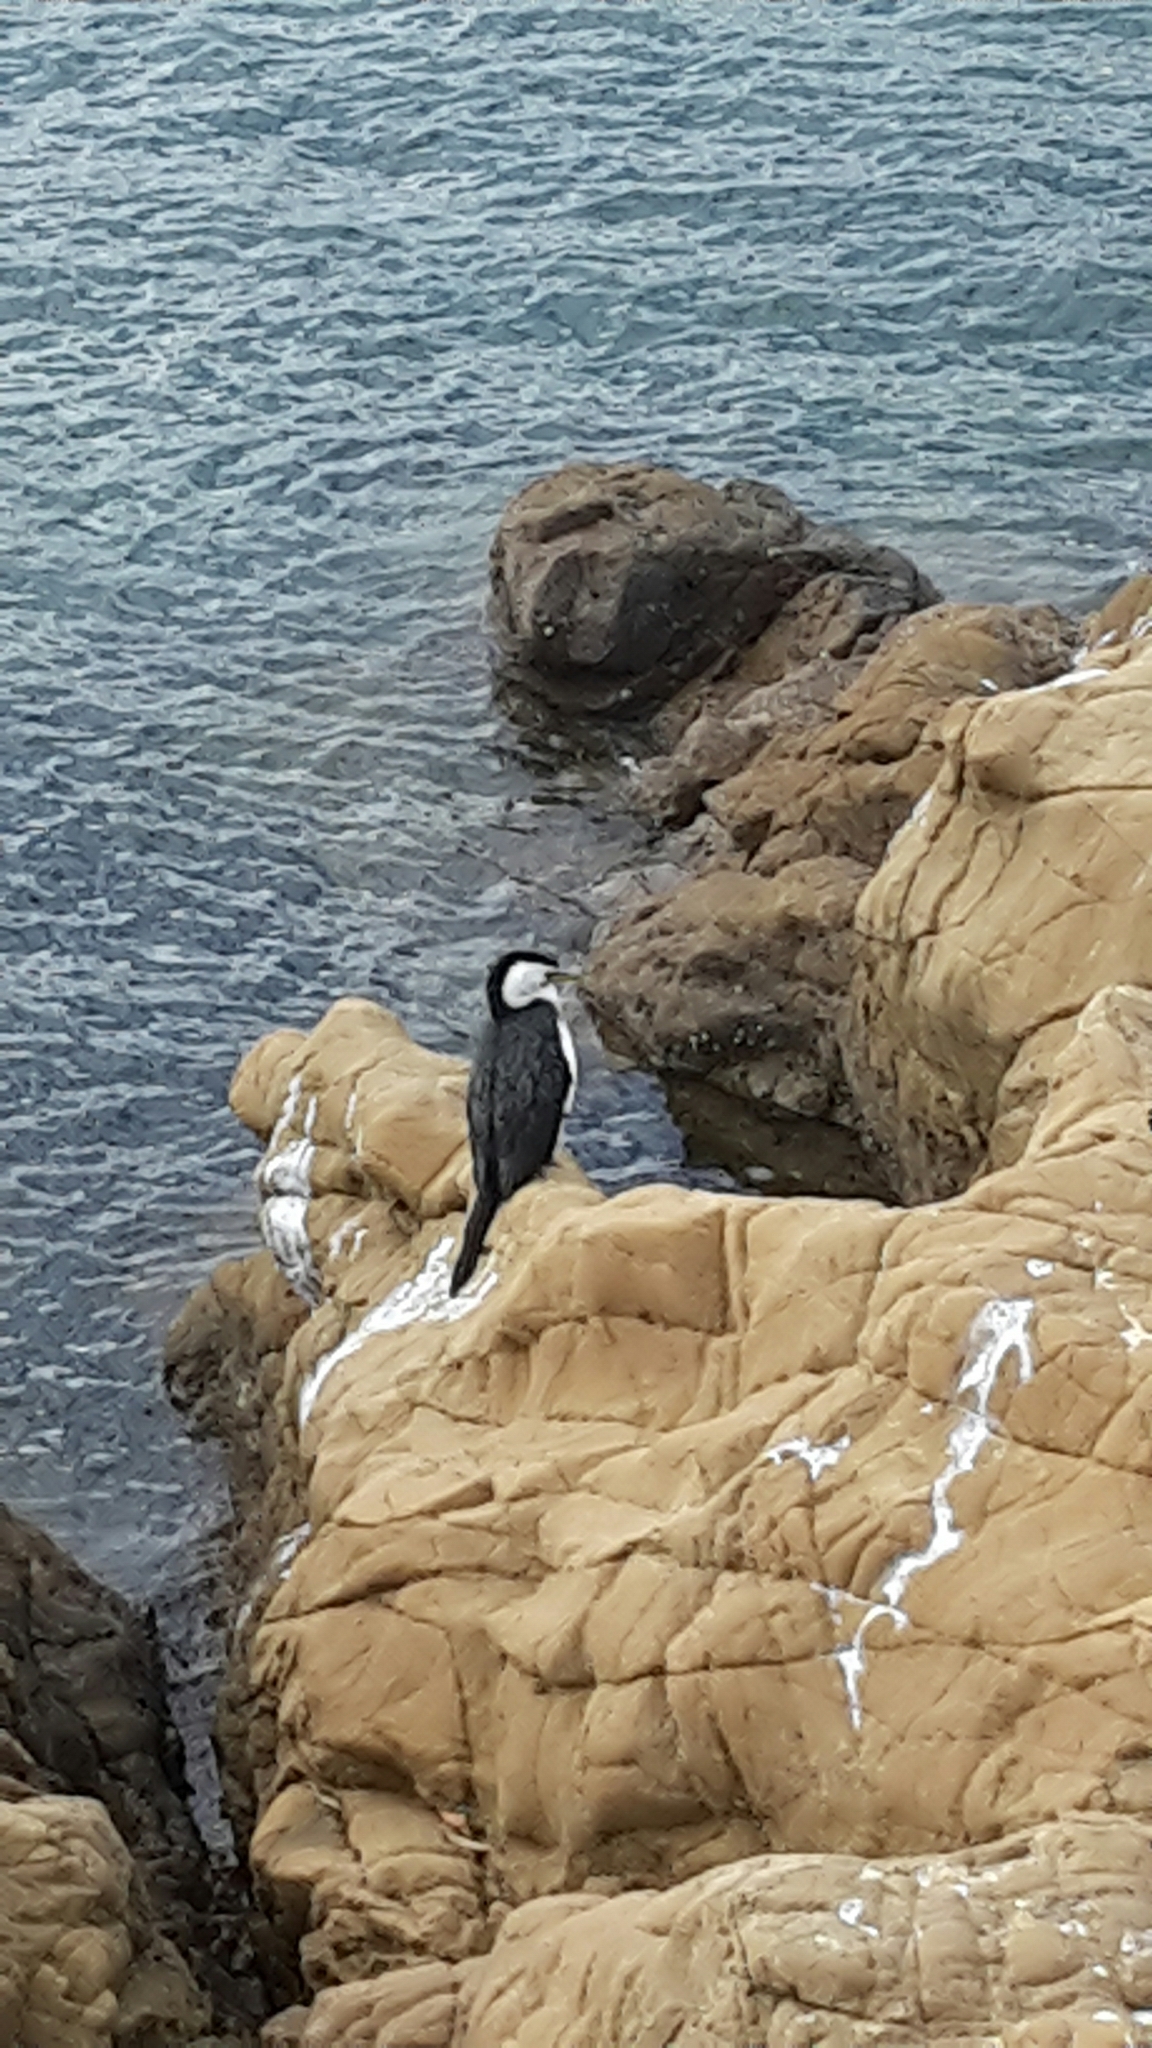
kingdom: Animalia
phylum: Chordata
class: Aves
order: Suliformes
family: Phalacrocoracidae
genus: Microcarbo
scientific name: Microcarbo melanoleucos
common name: Little pied cormorant
